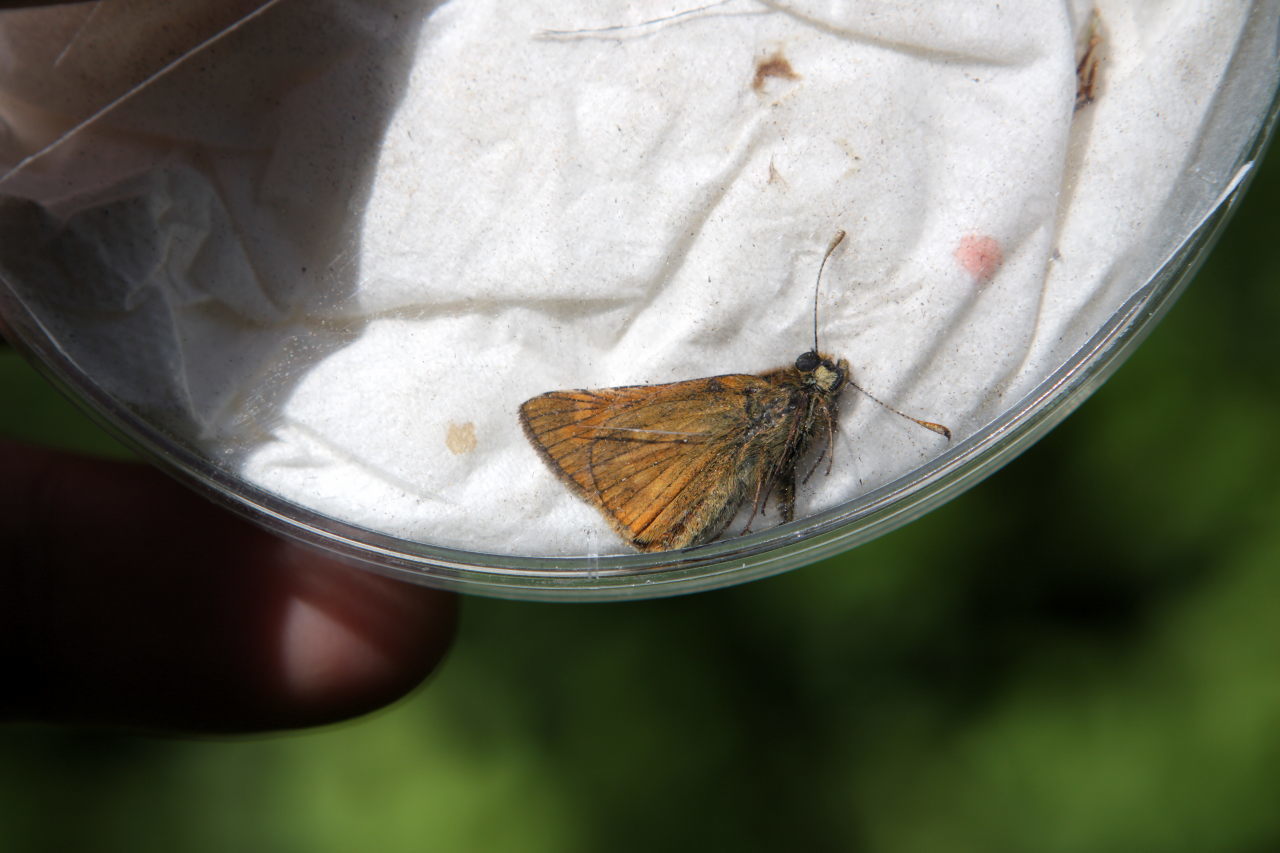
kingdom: Animalia
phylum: Arthropoda
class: Insecta
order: Lepidoptera
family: Hesperiidae
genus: Ochlodes
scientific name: Ochlodes venata
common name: Large skipper
